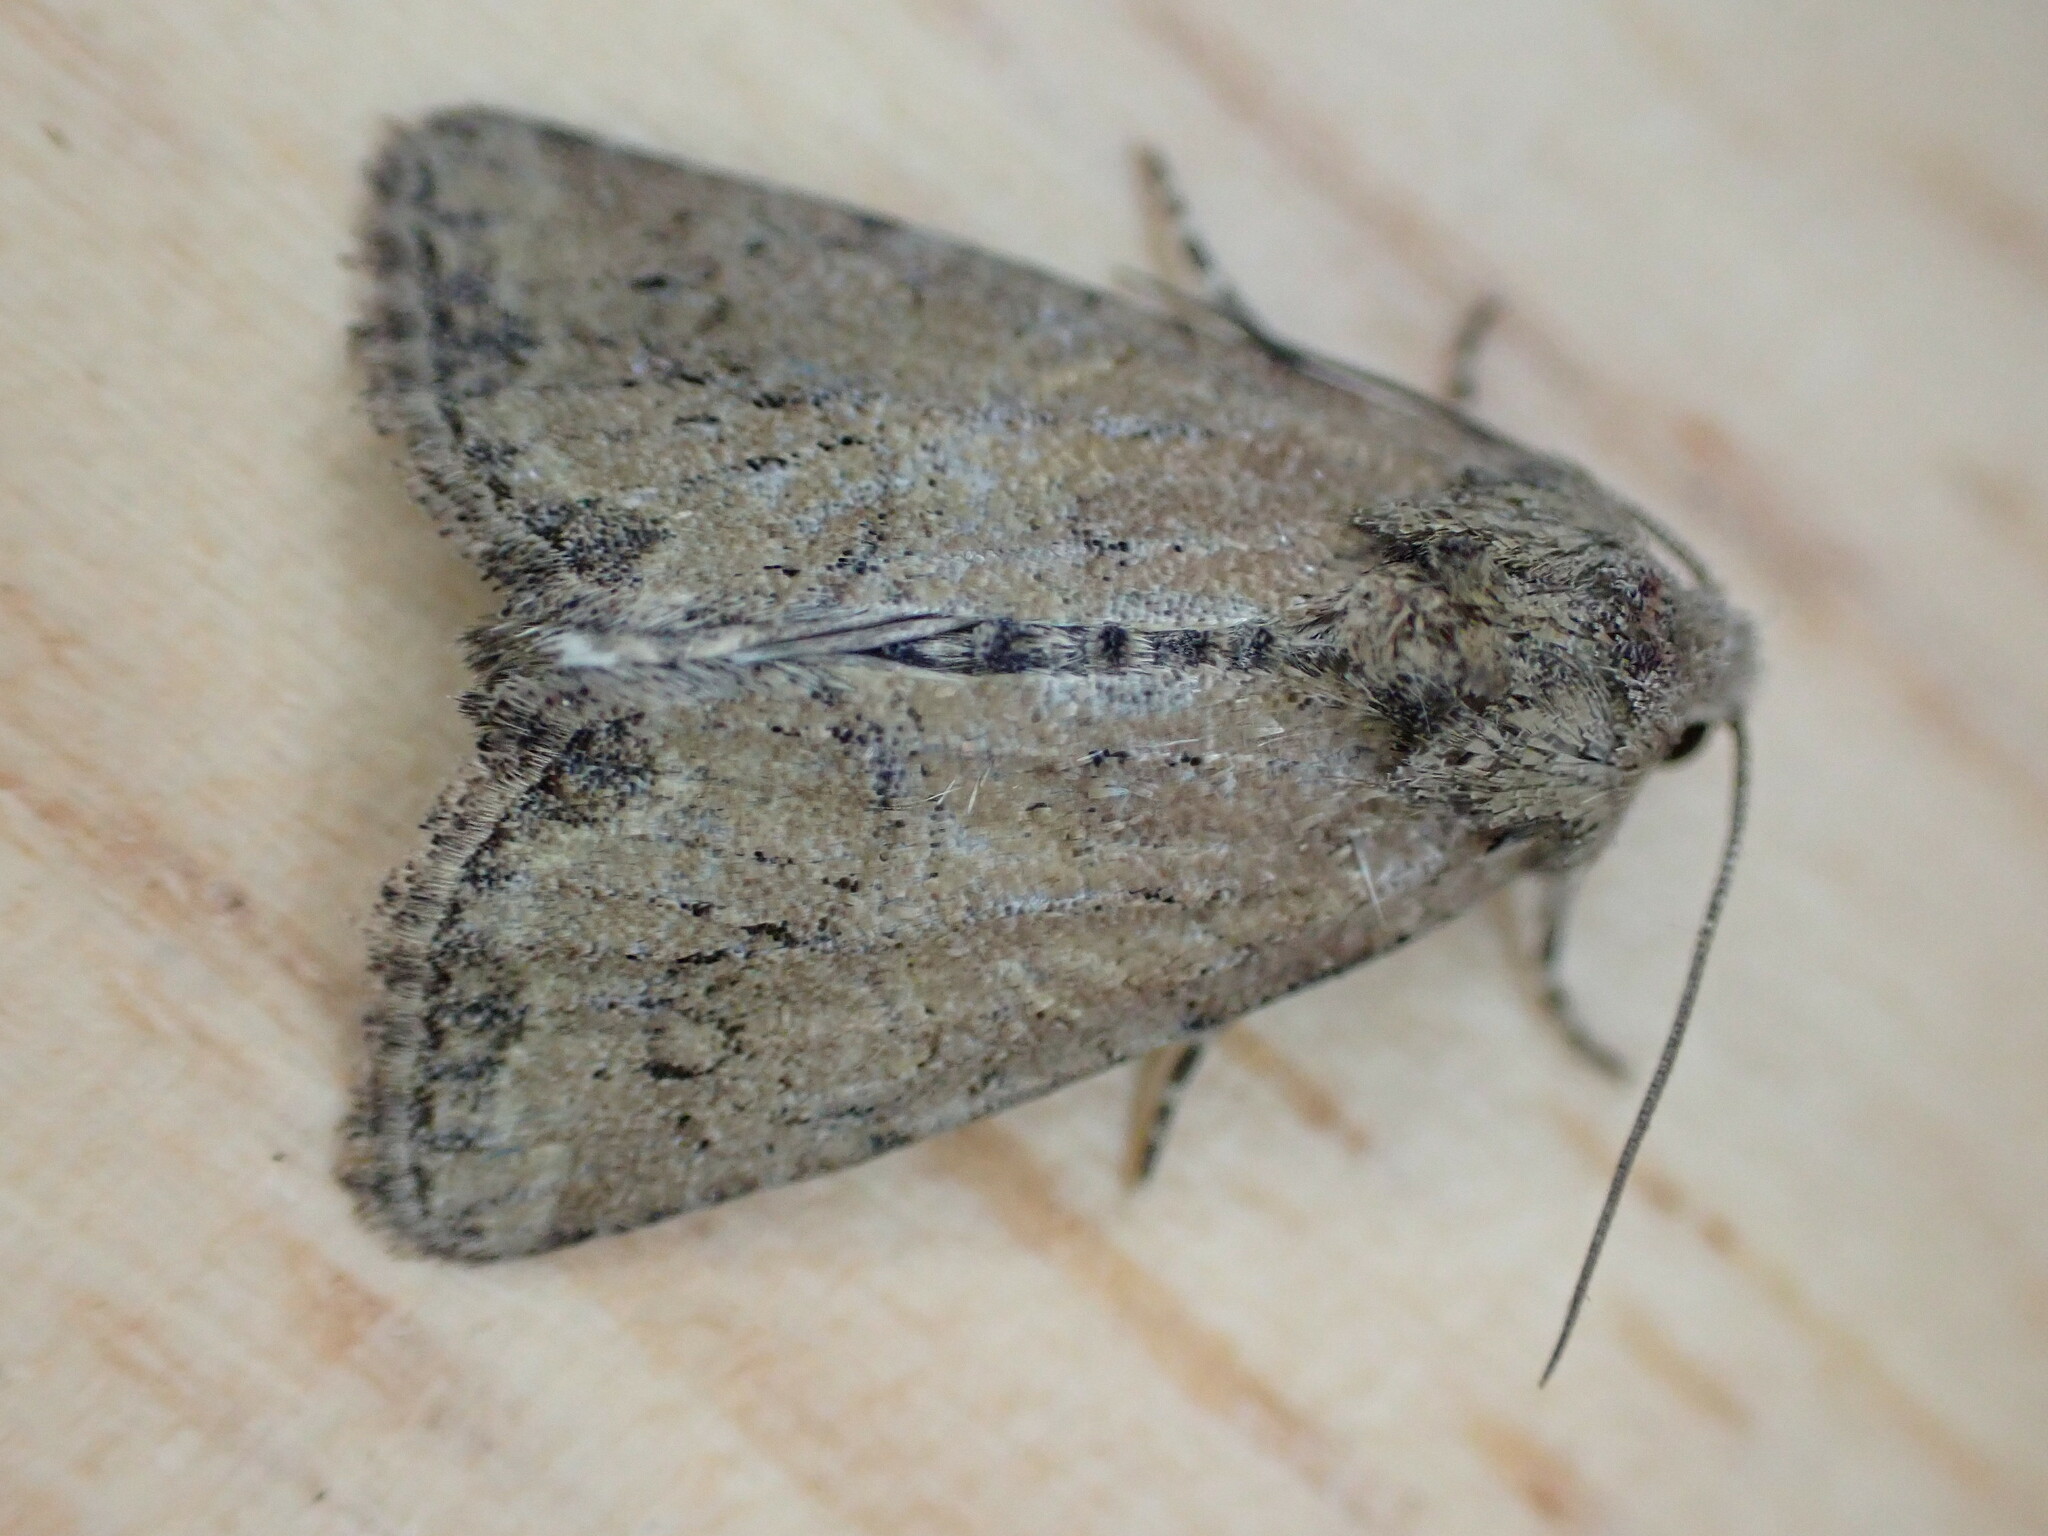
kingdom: Animalia
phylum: Arthropoda
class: Insecta
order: Lepidoptera
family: Noctuidae
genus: Mesoligia
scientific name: Mesoligia furuncula
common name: Cloaked minor
